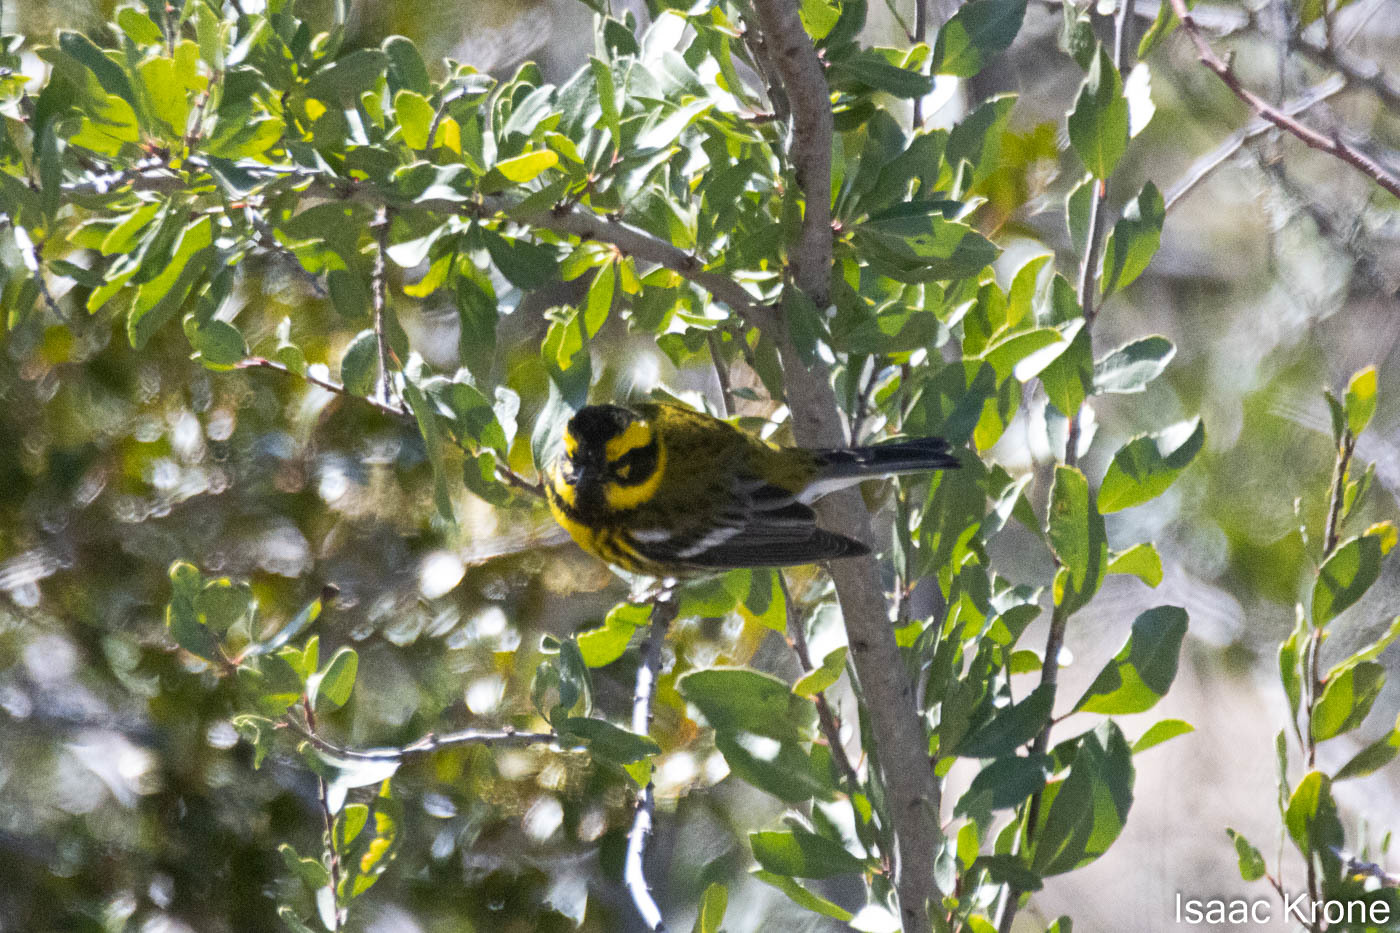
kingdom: Animalia
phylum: Chordata
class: Aves
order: Passeriformes
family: Parulidae
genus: Setophaga
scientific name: Setophaga townsendi
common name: Townsend's warbler
